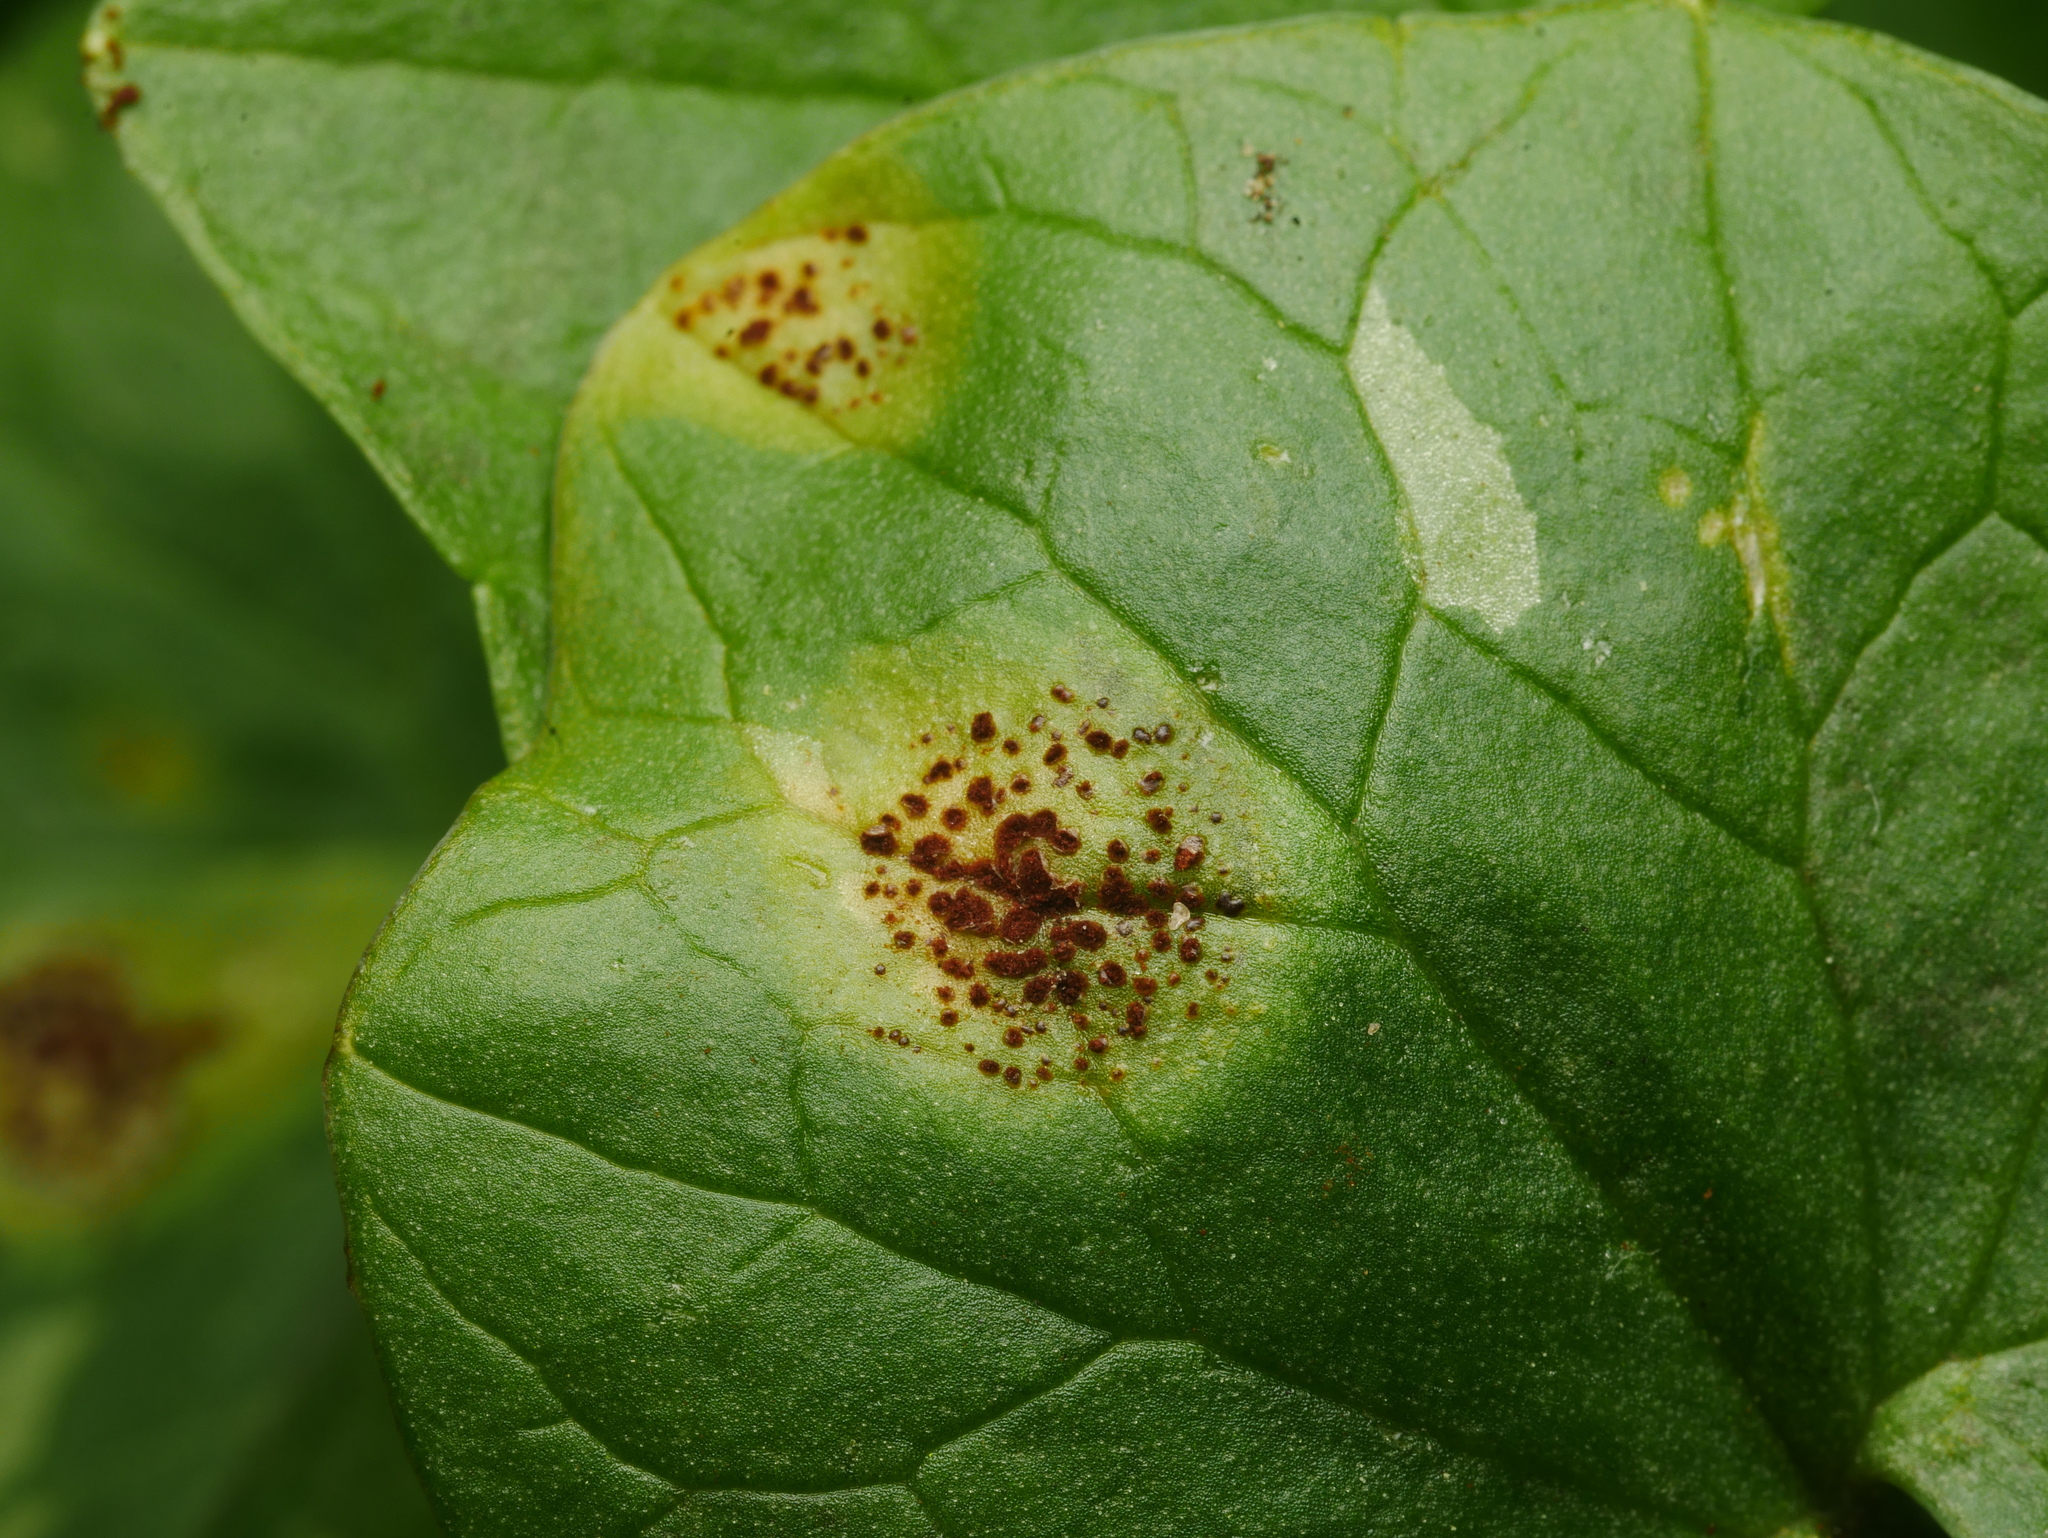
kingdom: Fungi
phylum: Basidiomycota
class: Pucciniomycetes
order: Pucciniales
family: Pucciniaceae
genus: Uromyces
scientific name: Uromyces ficariae
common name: Bitter chocolate rust
